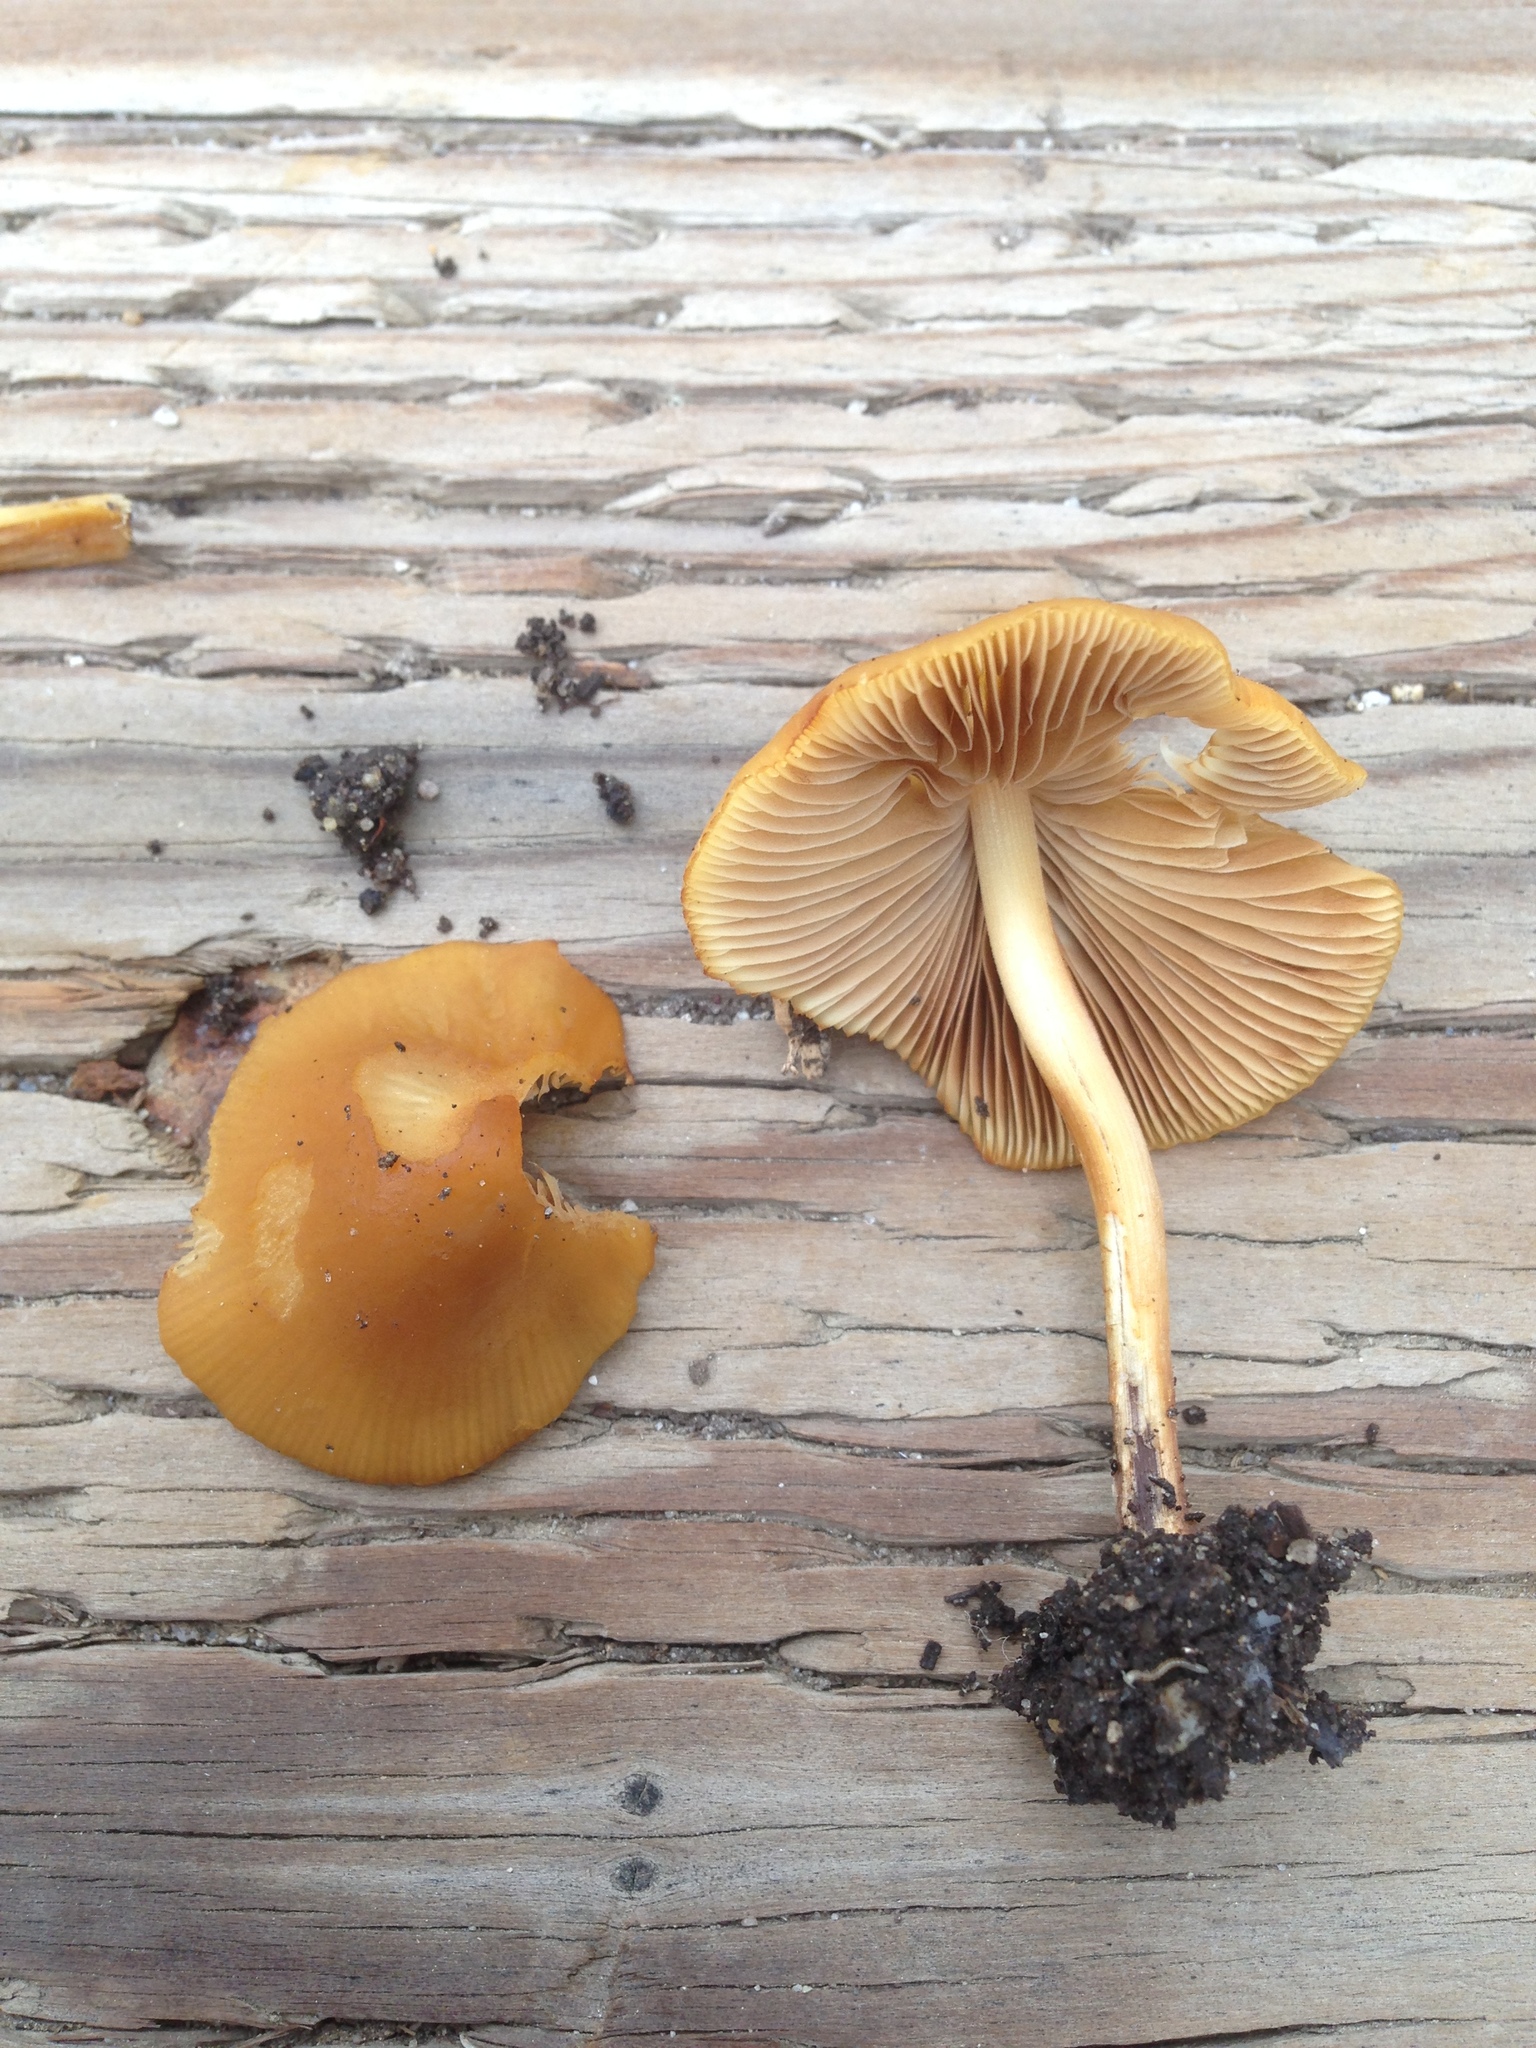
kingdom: Fungi
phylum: Basidiomycota
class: Agaricomycetes
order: Agaricales
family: Bolbitiaceae
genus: Conocybe
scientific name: Conocybe aurea
